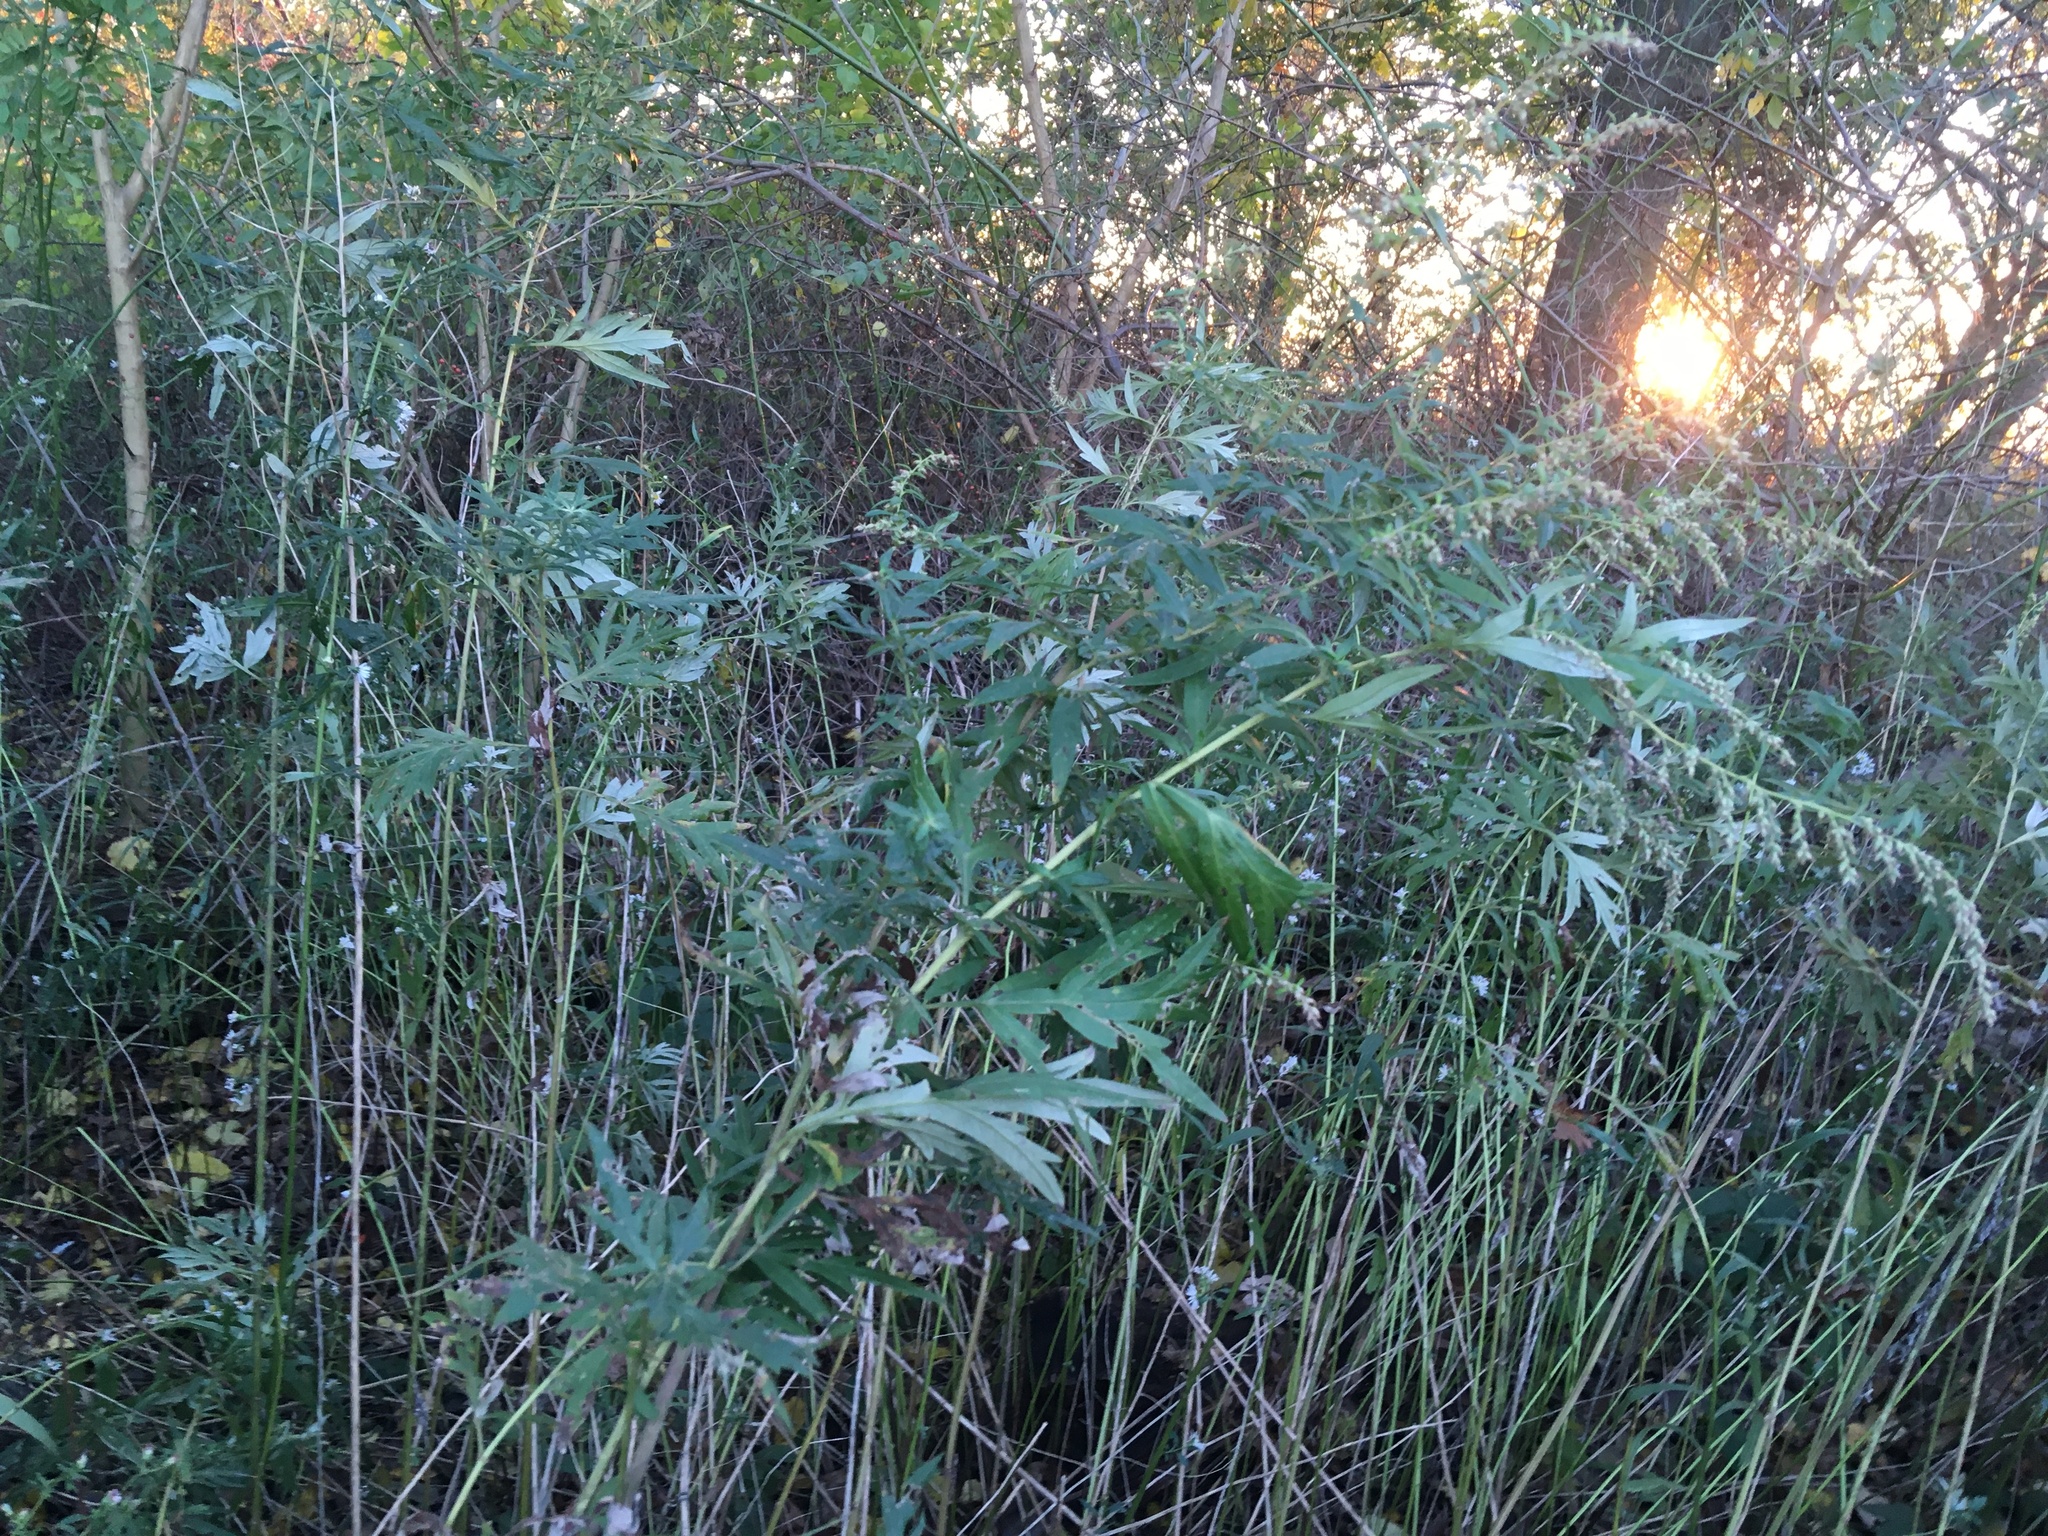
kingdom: Plantae
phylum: Tracheophyta
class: Magnoliopsida
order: Asterales
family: Asteraceae
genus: Artemisia
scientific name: Artemisia vulgaris
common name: Mugwort
